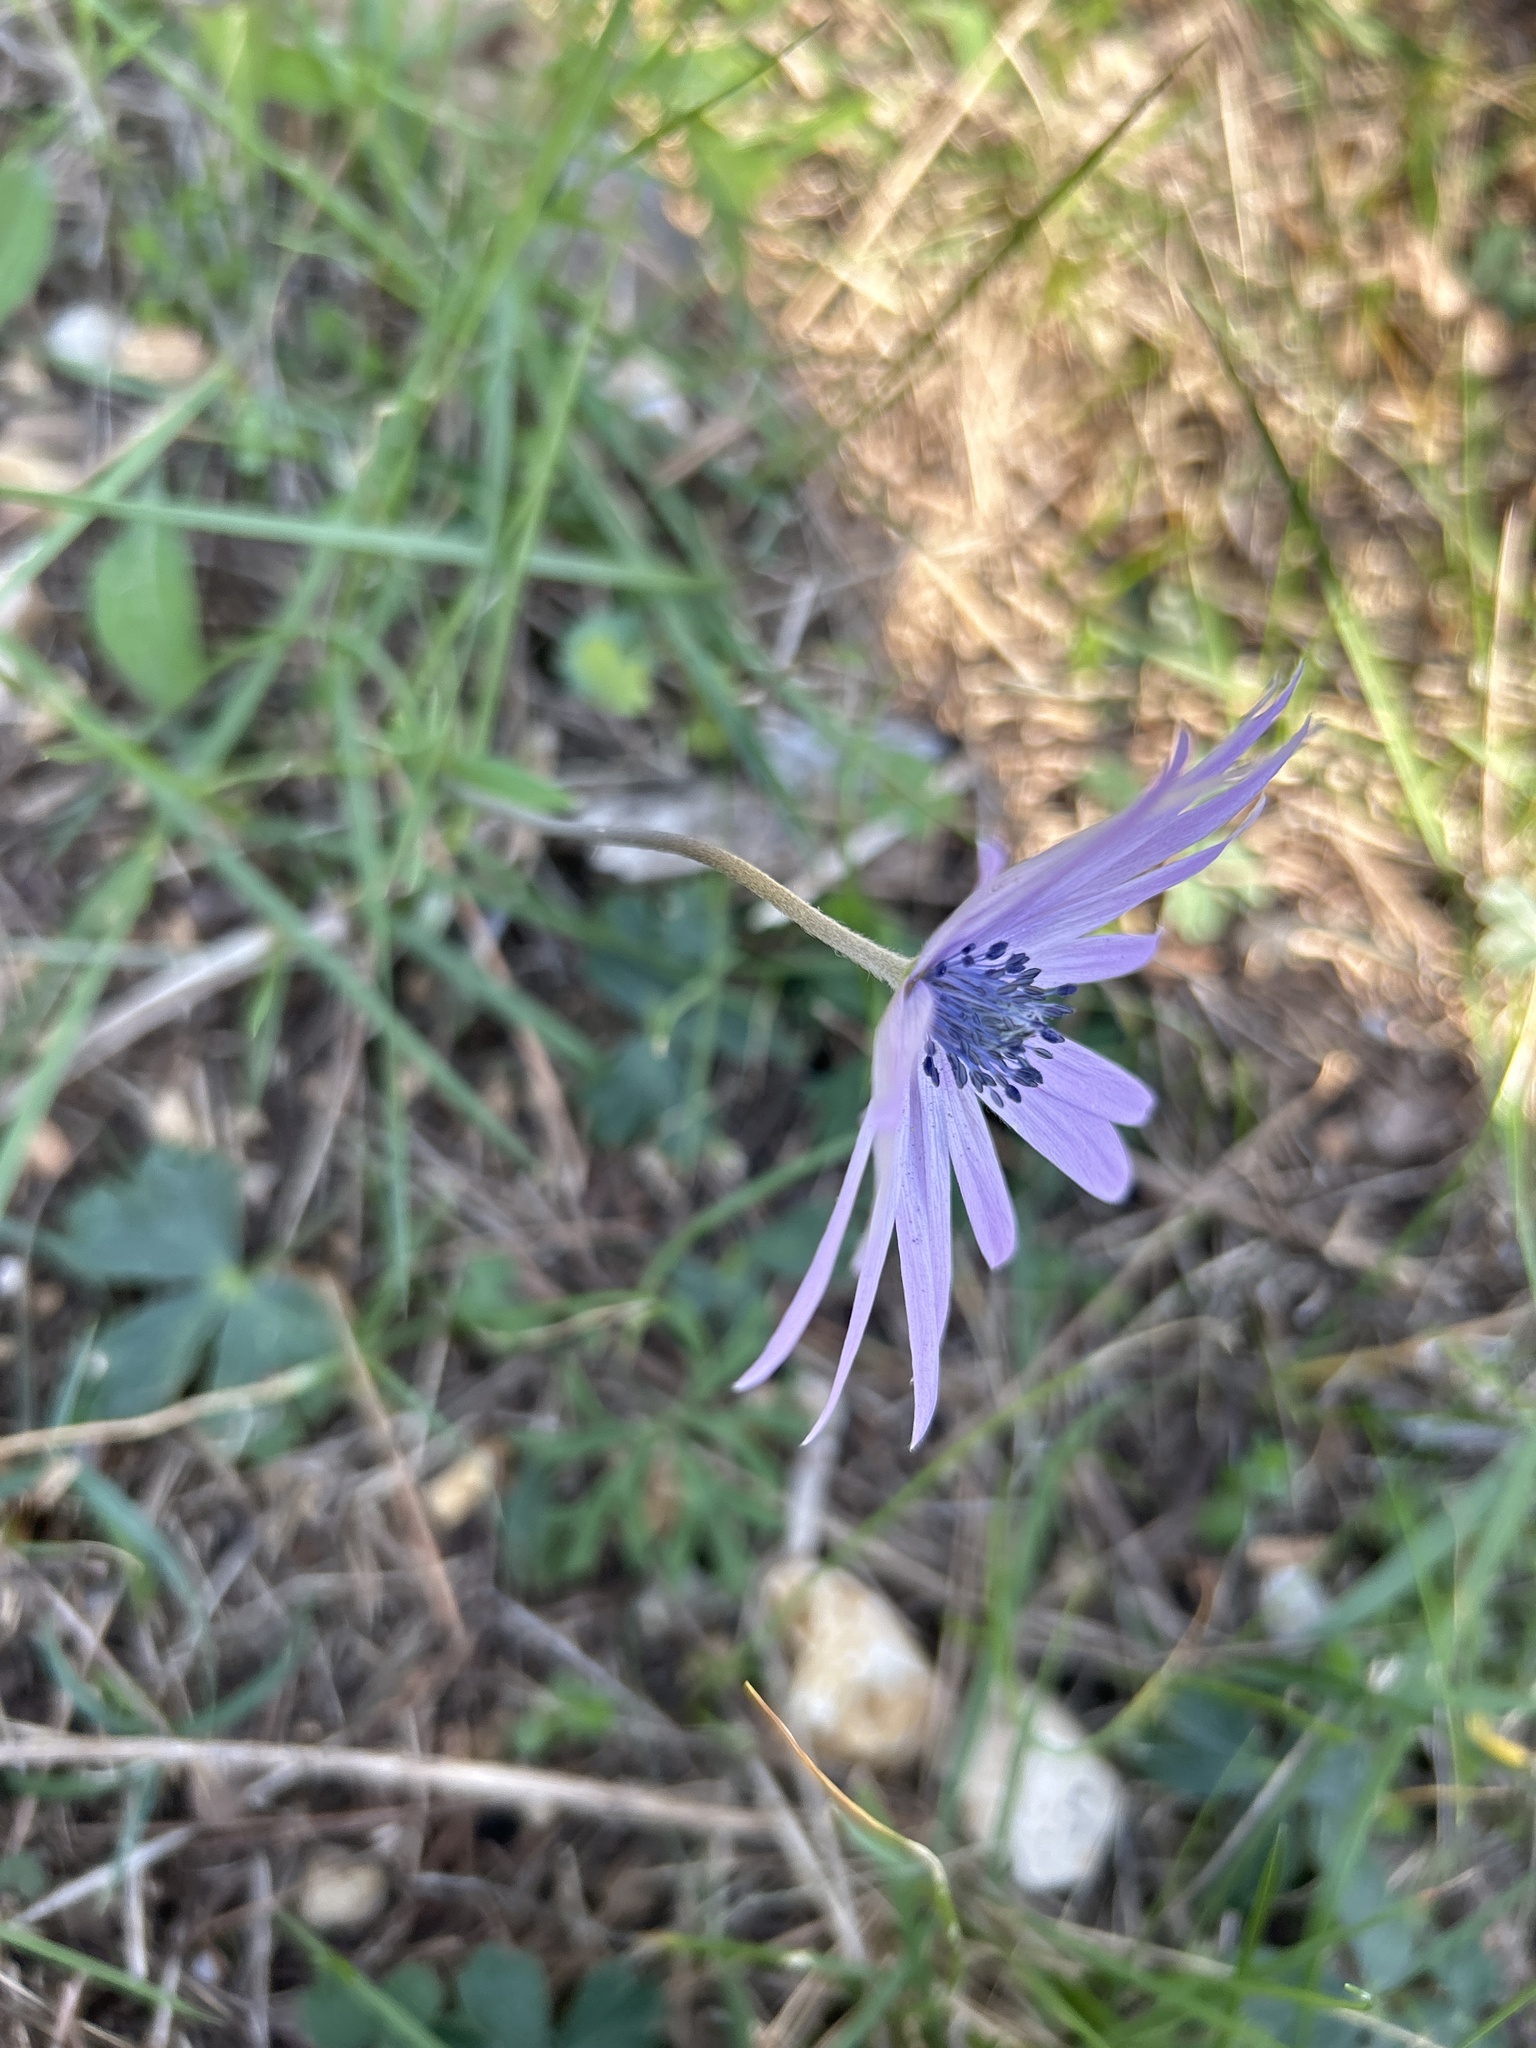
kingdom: Plantae
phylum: Tracheophyta
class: Magnoliopsida
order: Ranunculales
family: Ranunculaceae
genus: Anemone
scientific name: Anemone hortensis
